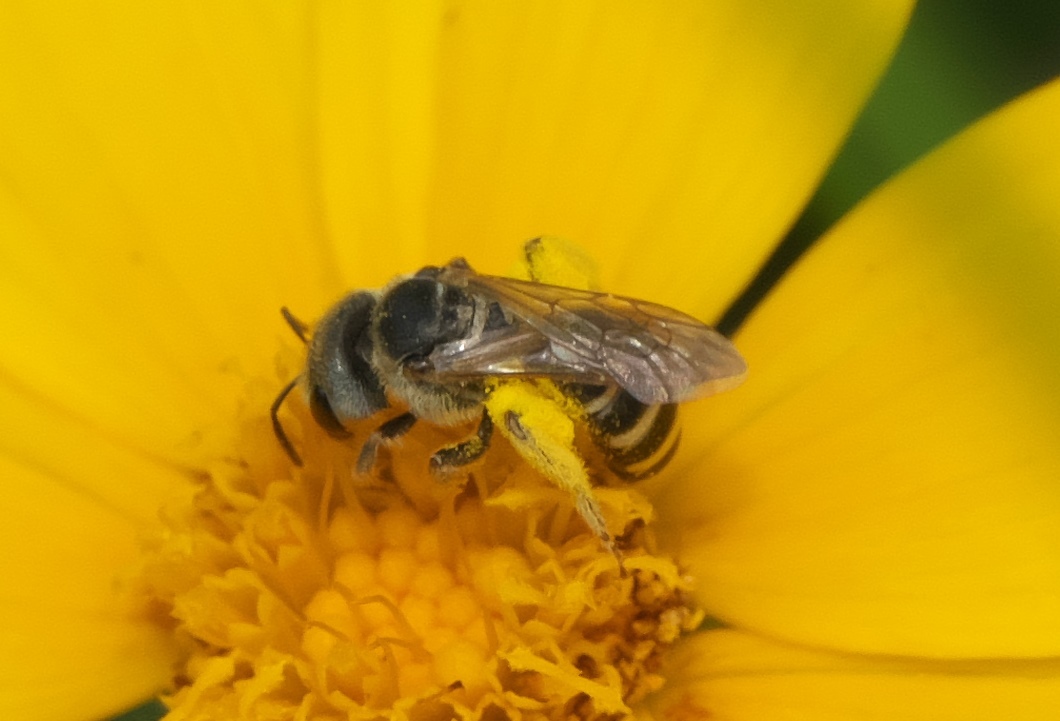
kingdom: Animalia
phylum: Arthropoda
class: Insecta
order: Hymenoptera
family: Halictidae
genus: Halictus
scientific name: Halictus ligatus
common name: Ligated furrow bee
